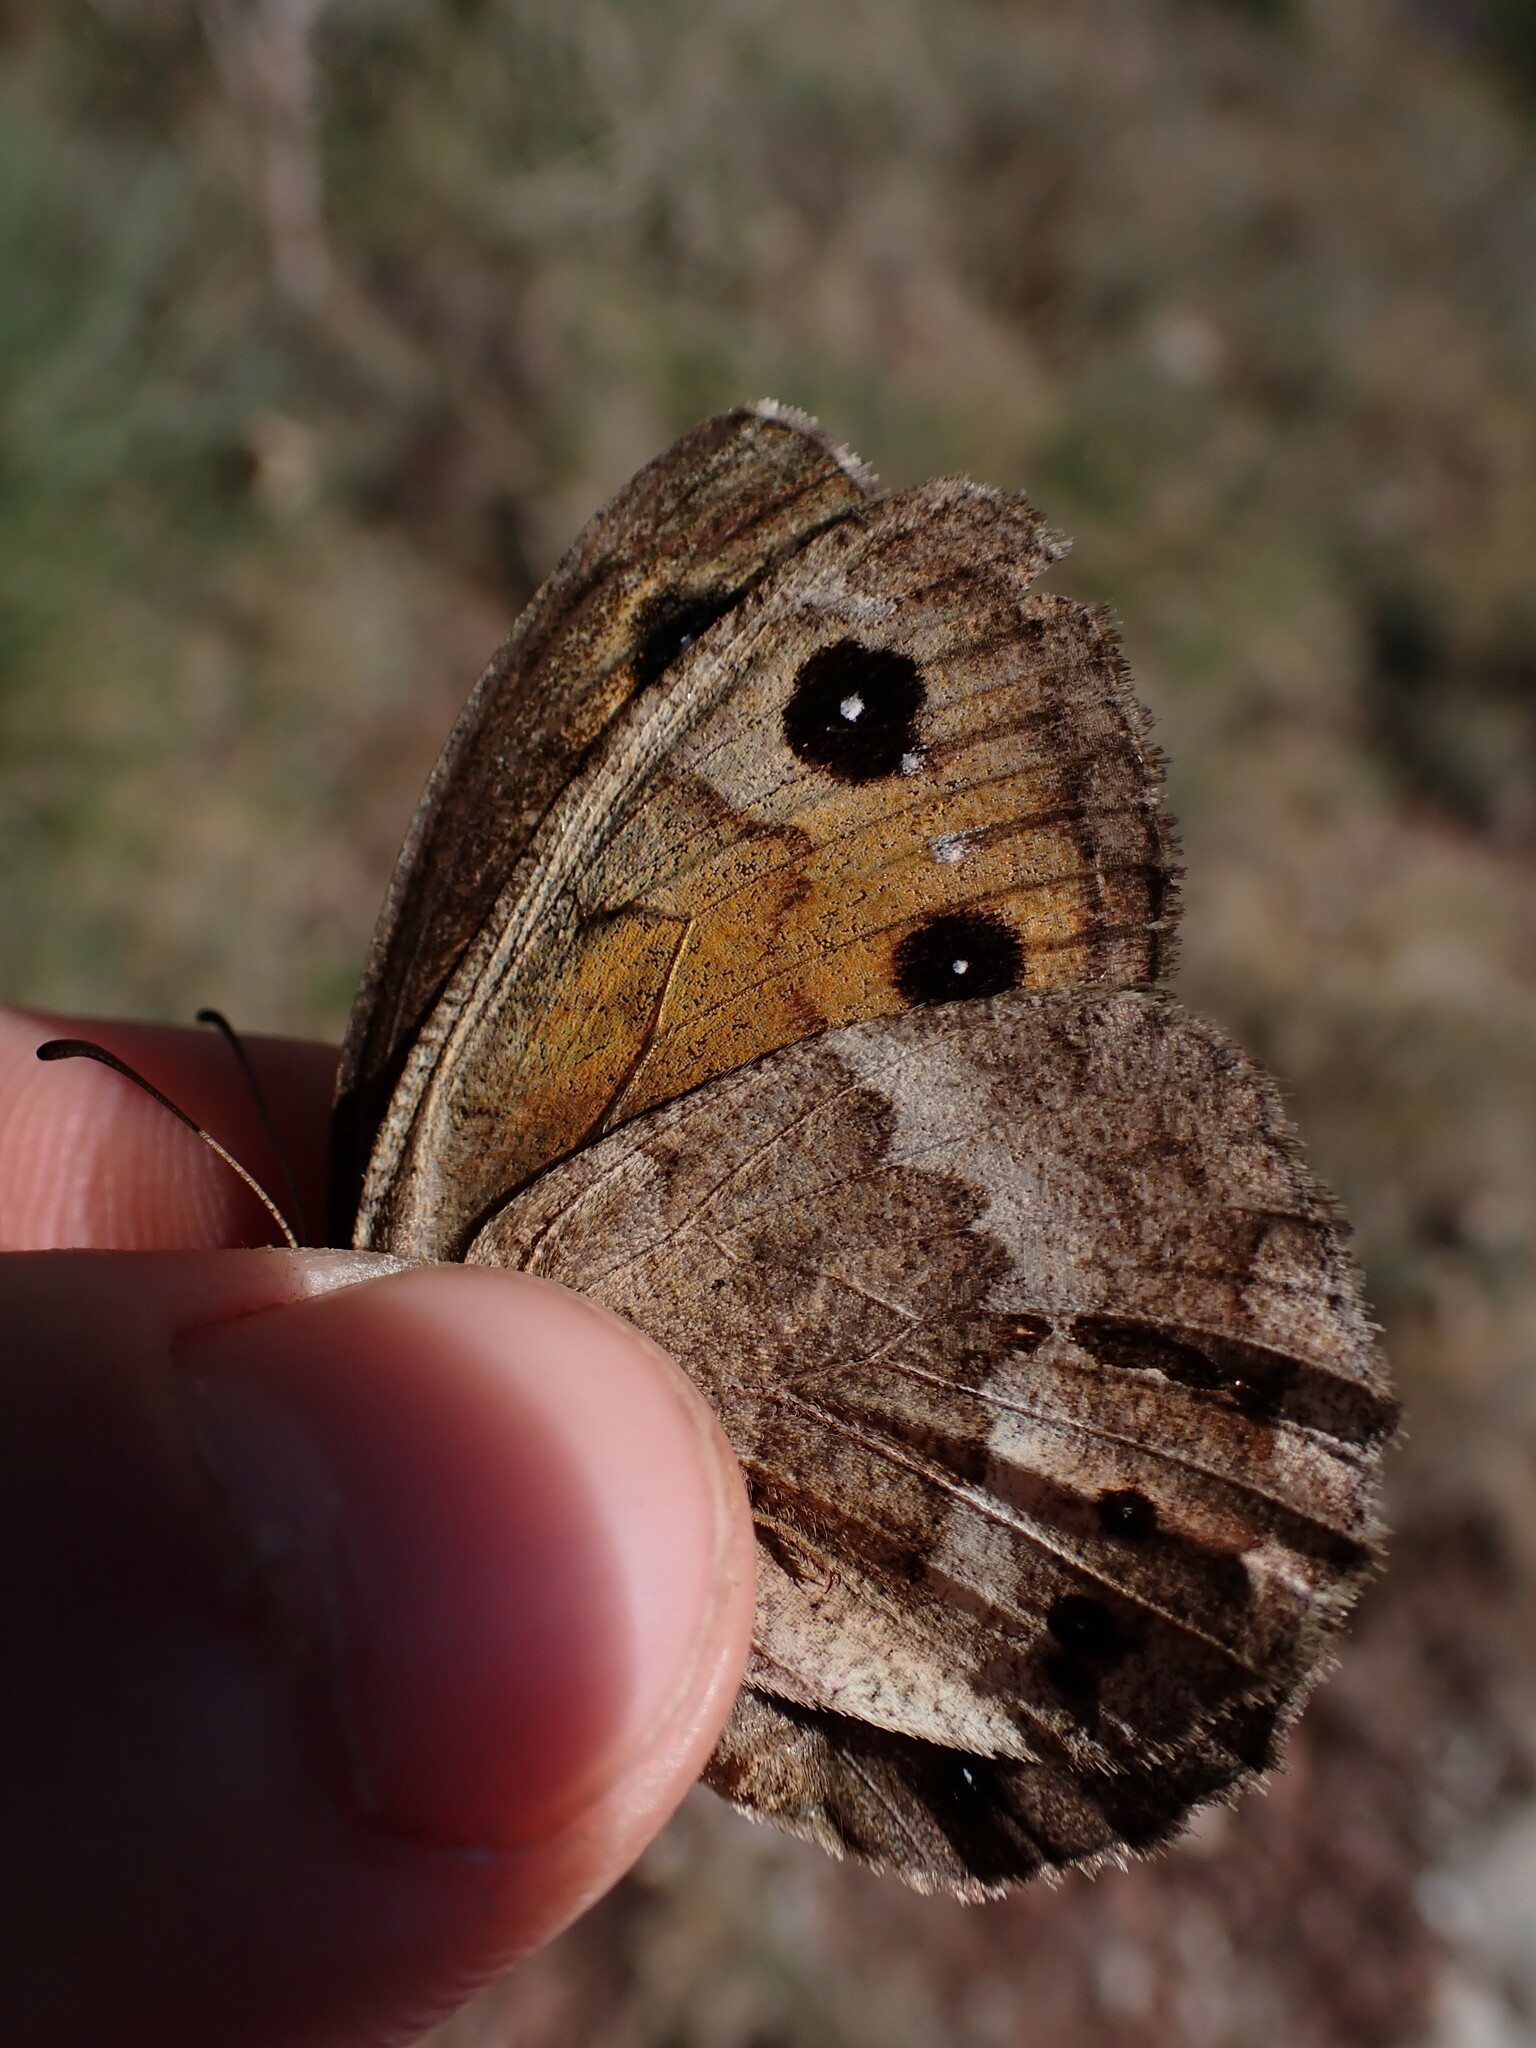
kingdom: Animalia
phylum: Arthropoda
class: Insecta
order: Lepidoptera
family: Nymphalidae
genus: Satyrus
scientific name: Satyrus ferula
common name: Great sooty satyr
